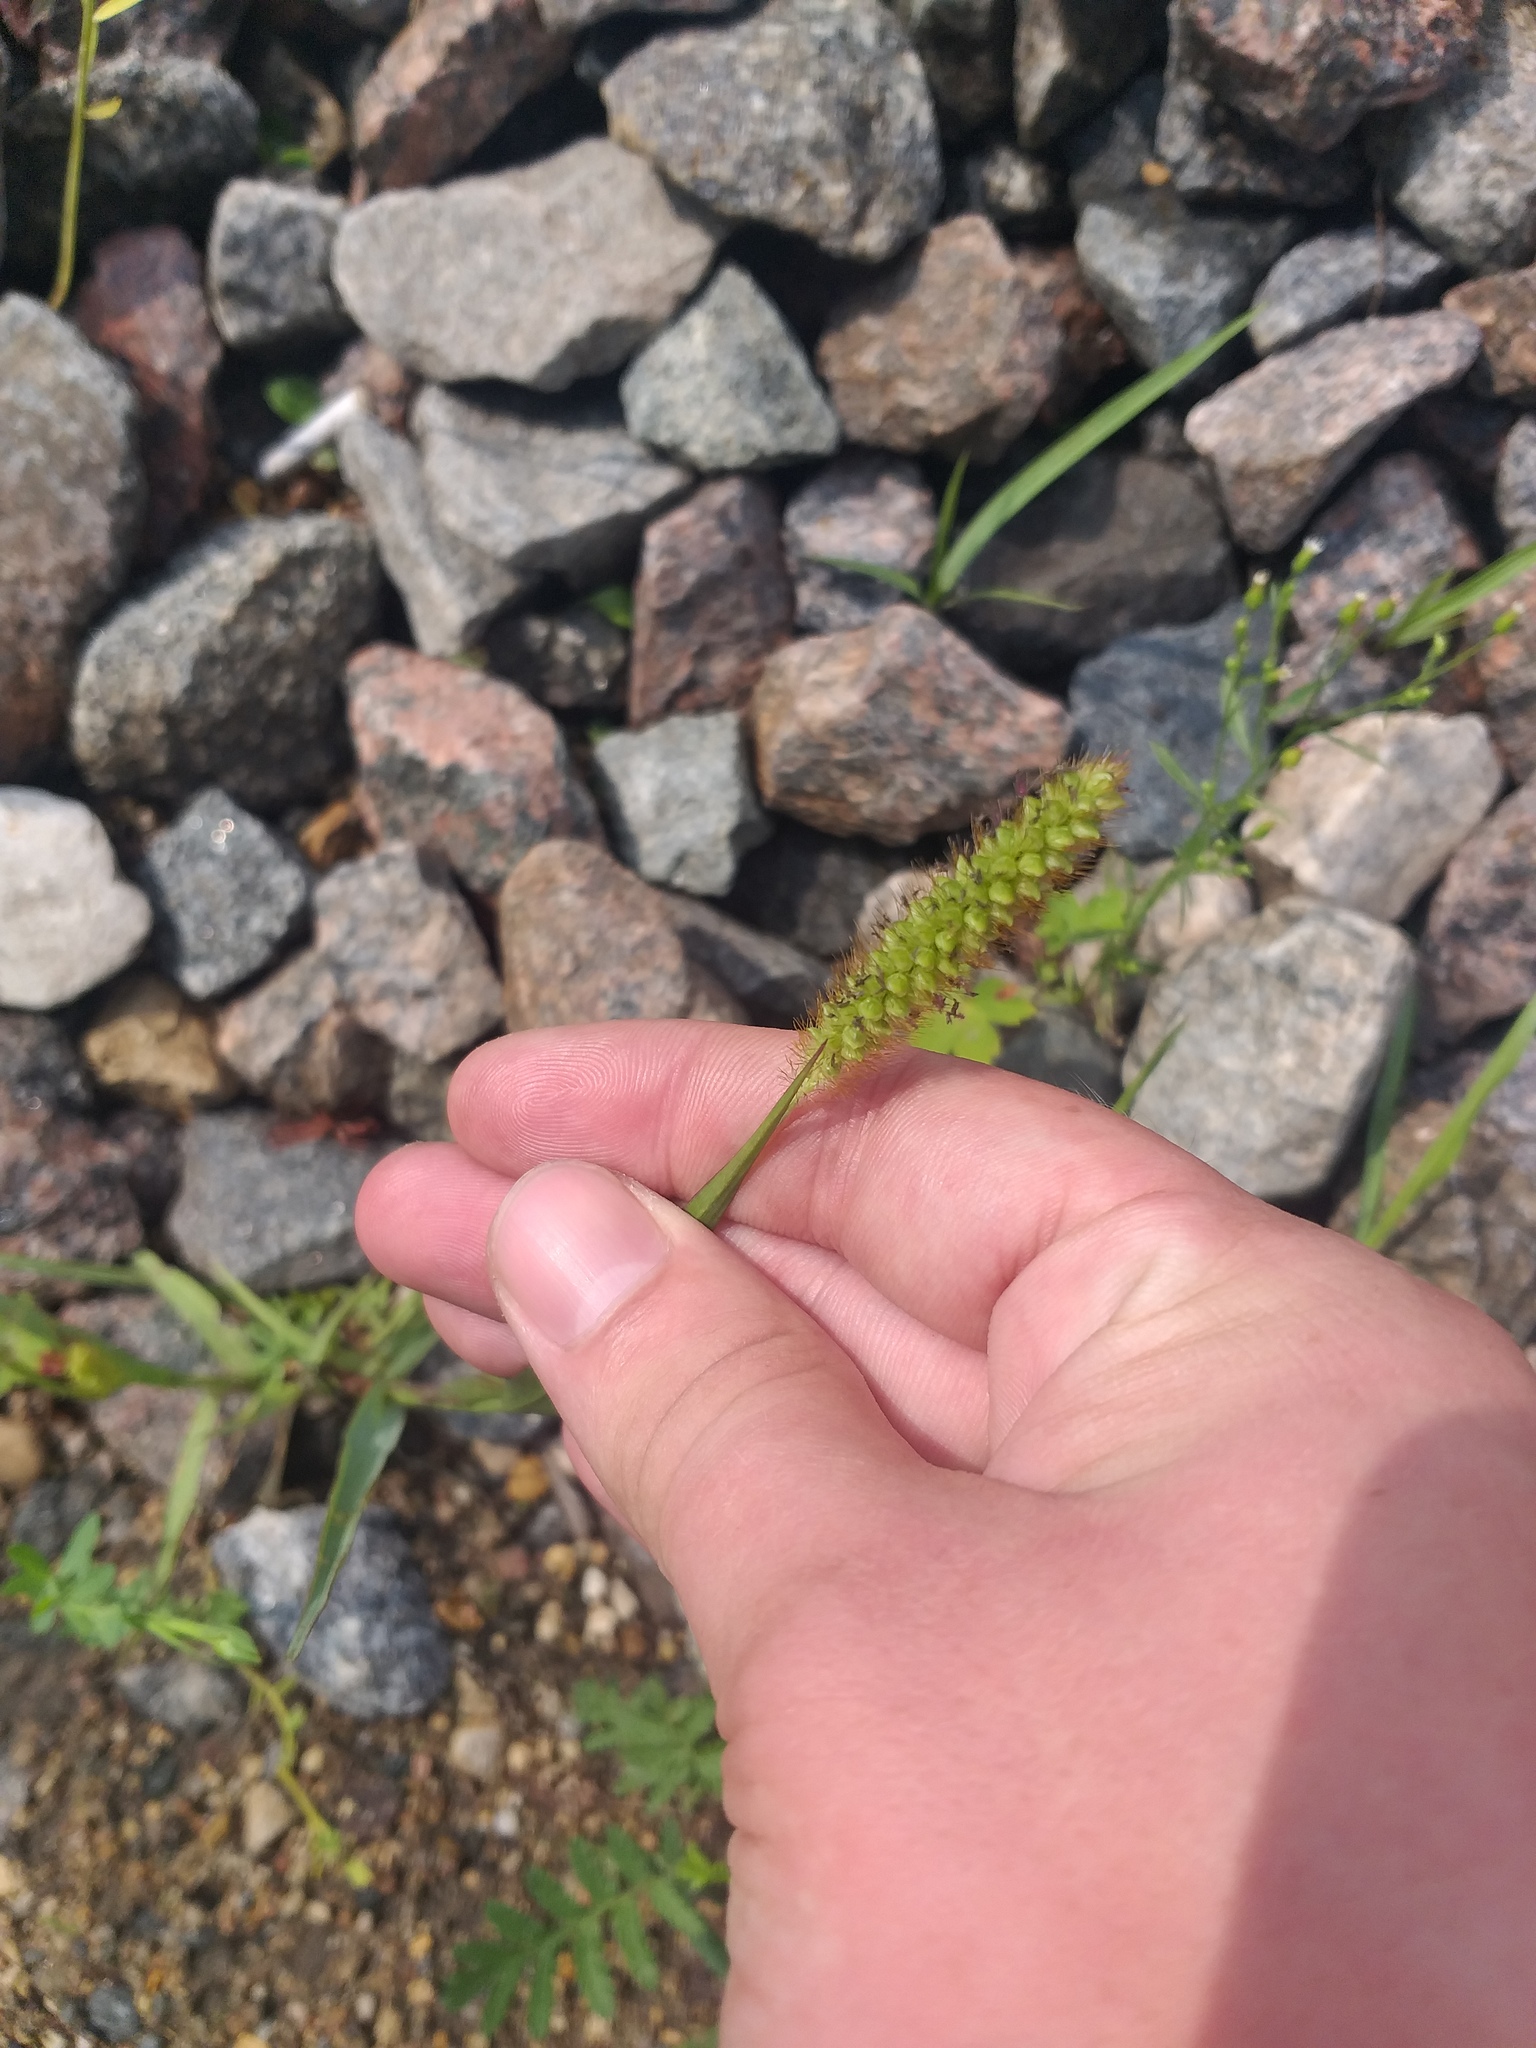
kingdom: Plantae
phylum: Tracheophyta
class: Liliopsida
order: Poales
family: Poaceae
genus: Setaria
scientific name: Setaria pumila
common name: Yellow bristle-grass
